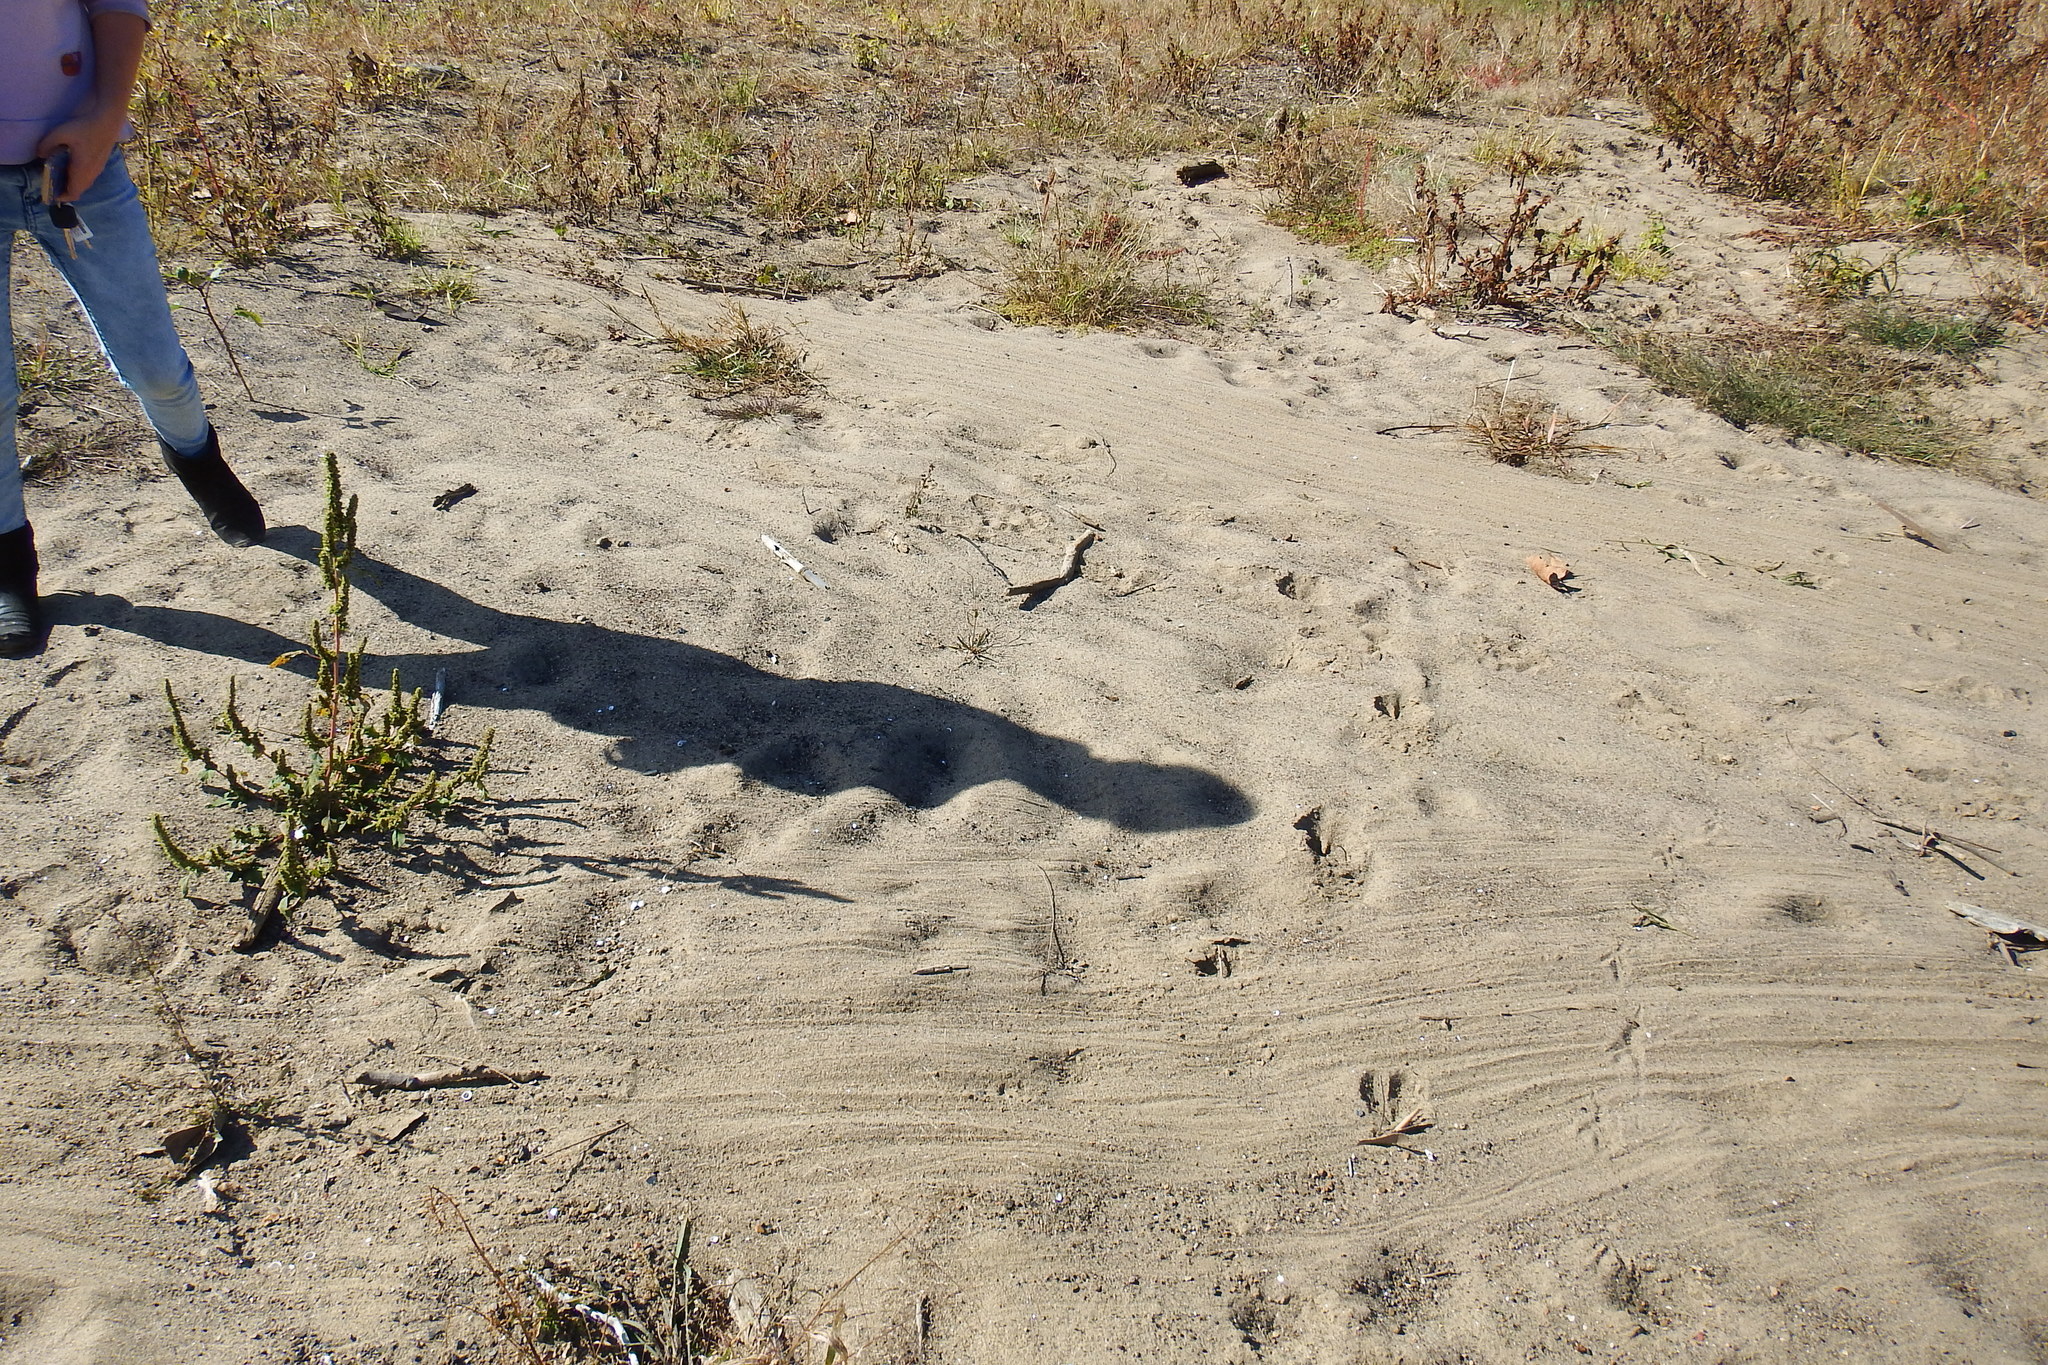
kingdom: Animalia
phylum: Chordata
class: Mammalia
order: Rodentia
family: Castoridae
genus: Castor
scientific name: Castor canadensis
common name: American beaver
